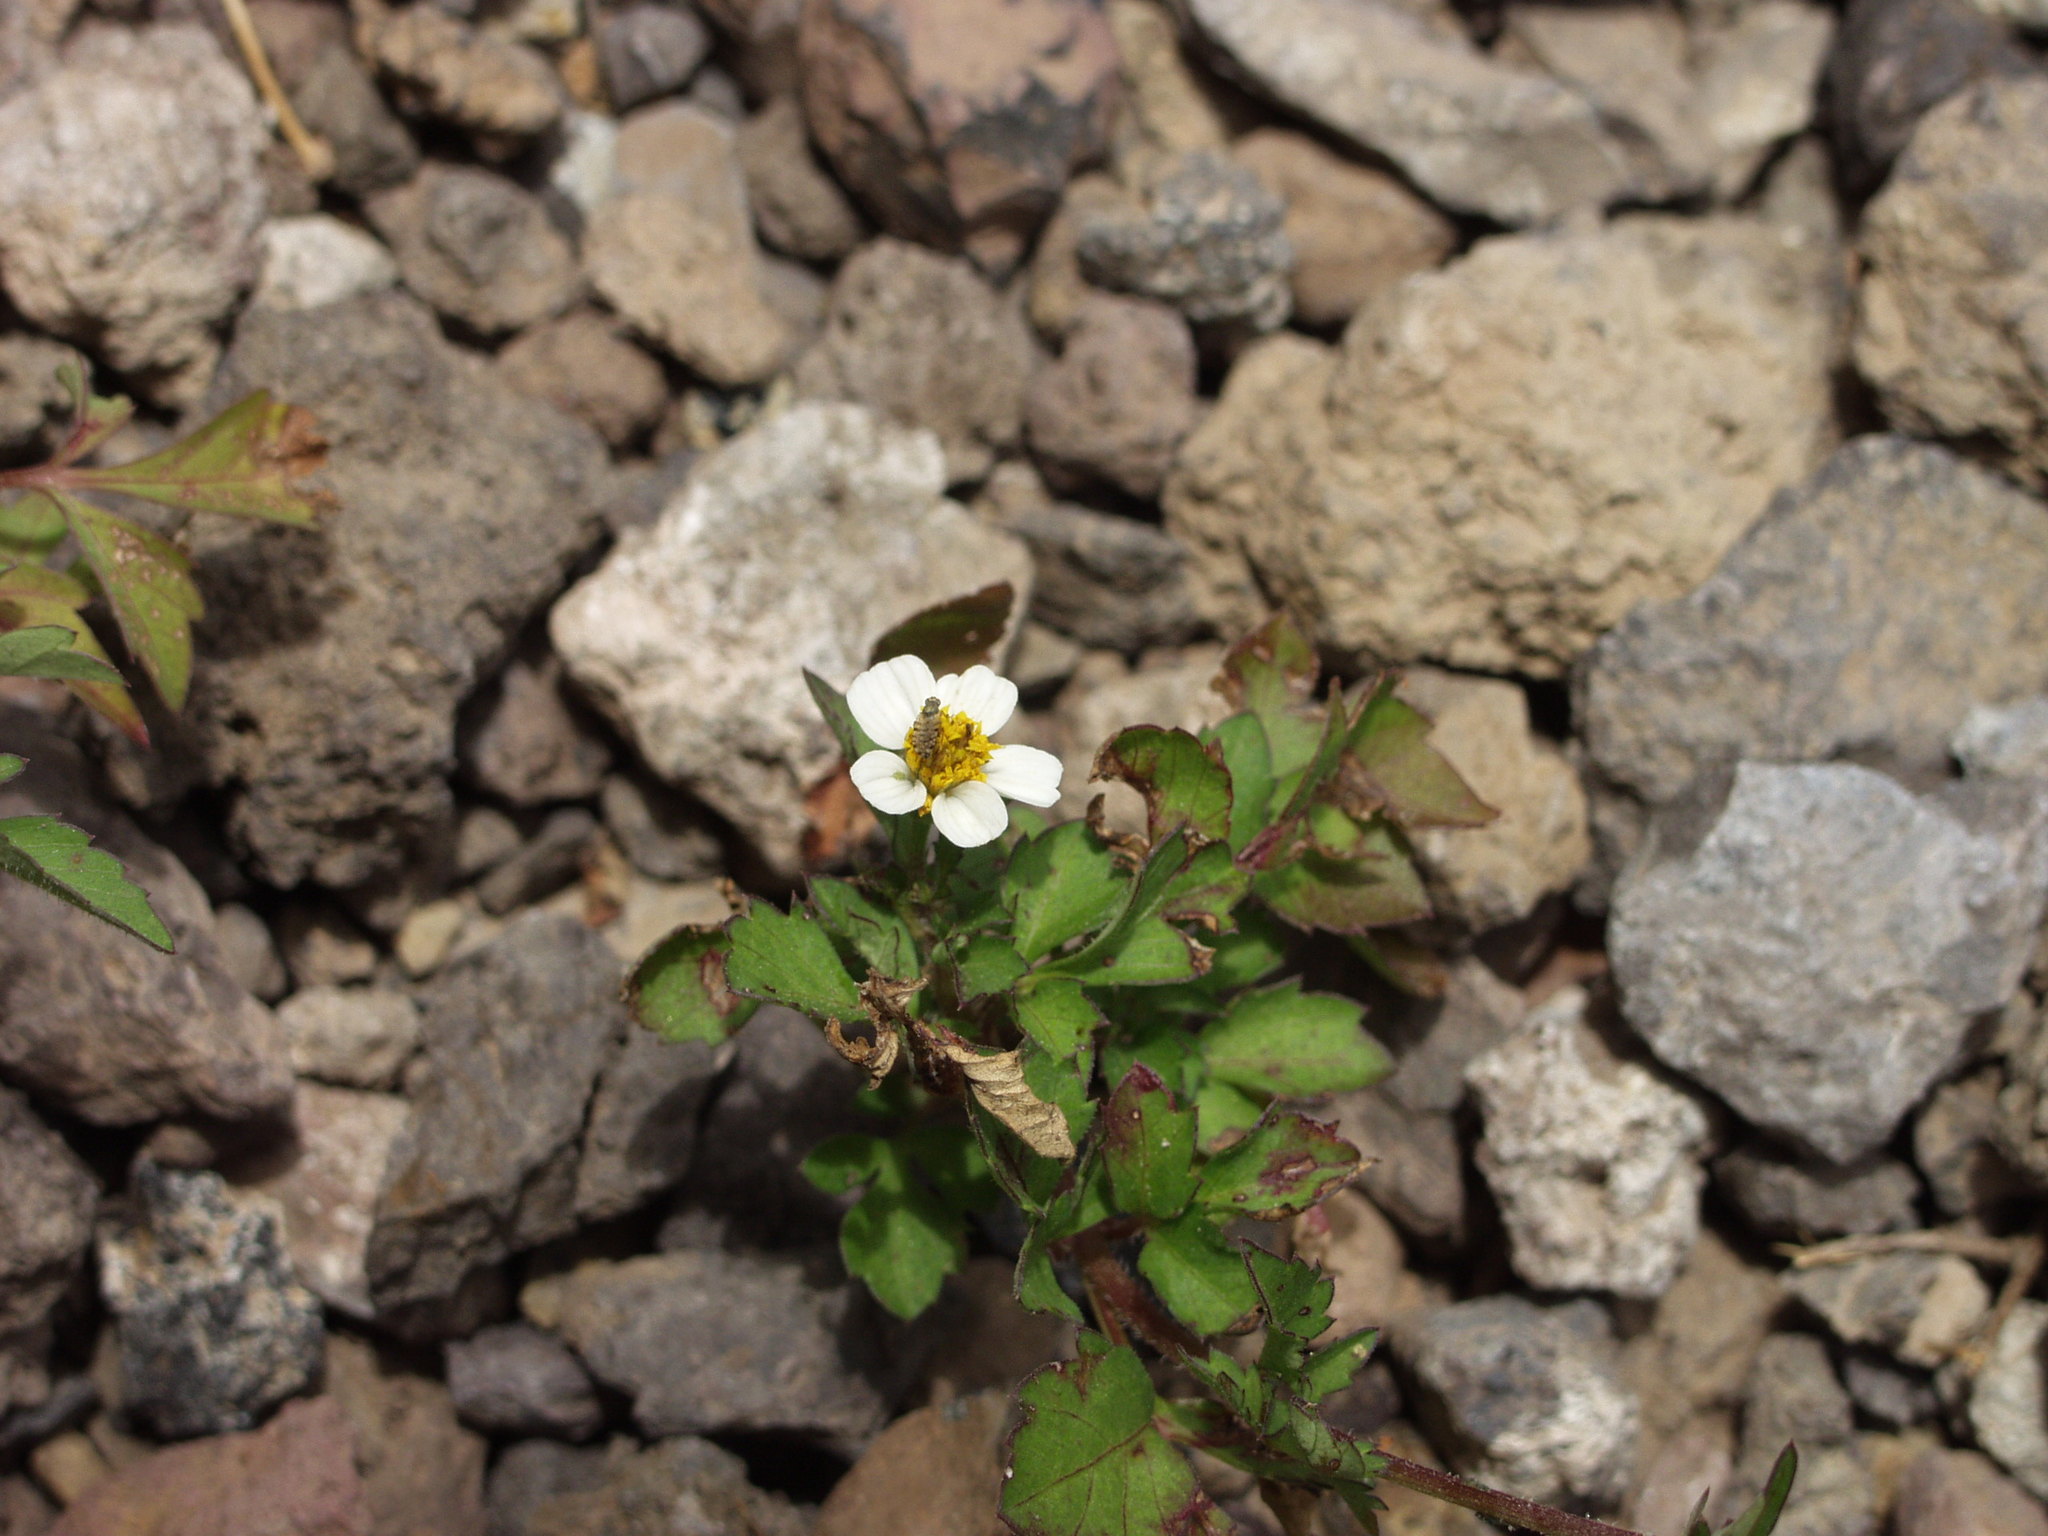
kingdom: Plantae
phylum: Tracheophyta
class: Magnoliopsida
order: Asterales
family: Asteraceae
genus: Bidens
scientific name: Bidens pilosa
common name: Black-jack
